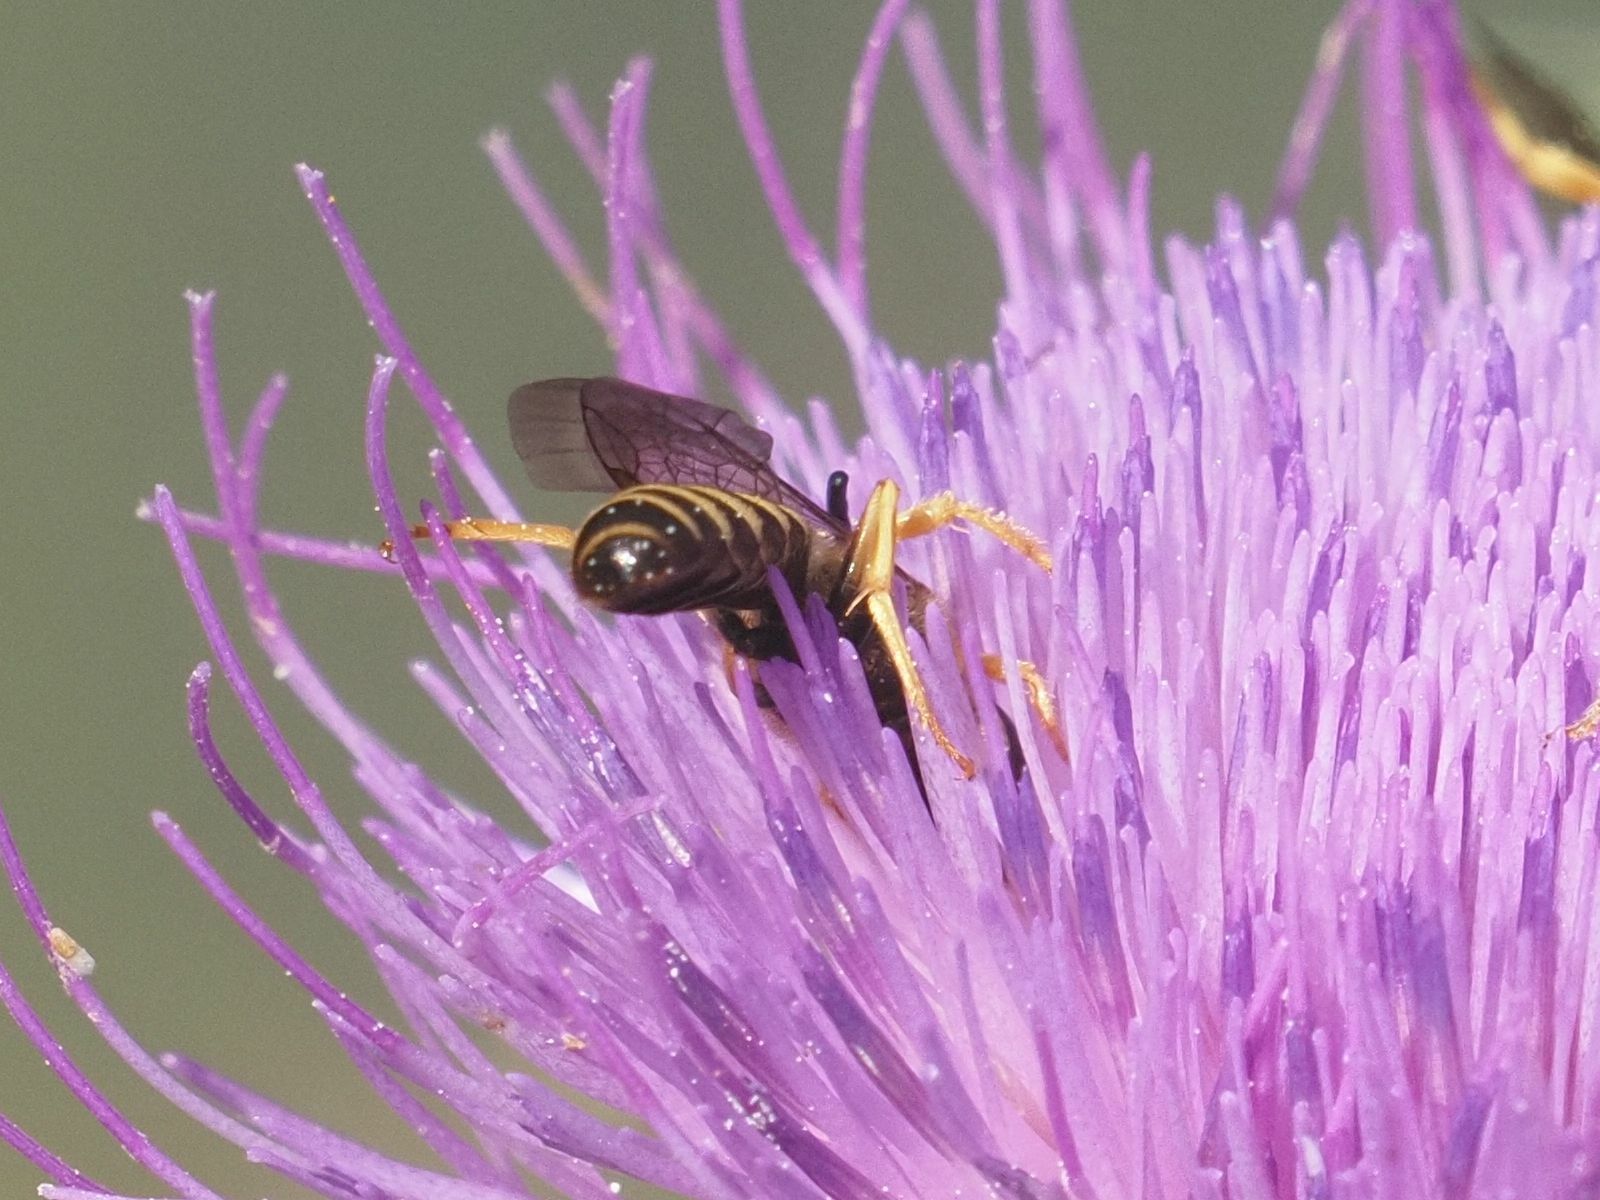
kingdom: Animalia
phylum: Arthropoda
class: Insecta
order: Hymenoptera
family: Halictidae
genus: Halictus
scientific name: Halictus scabiosae
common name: Great banded furrow bee
